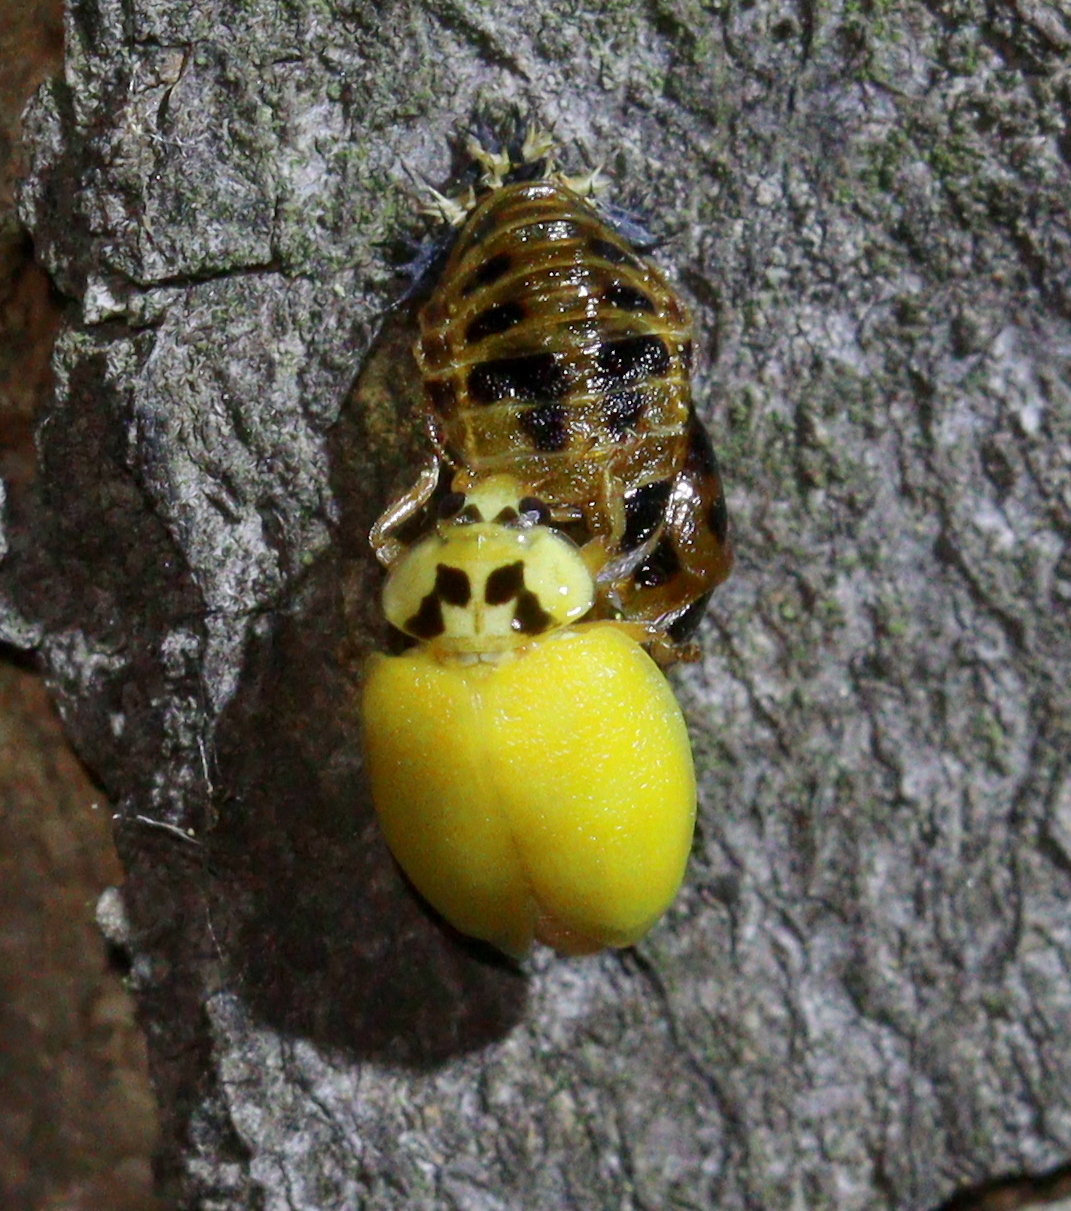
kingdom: Animalia
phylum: Arthropoda
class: Insecta
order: Coleoptera
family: Coccinellidae
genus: Harmonia
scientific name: Harmonia axyridis
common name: Harlequin ladybird
